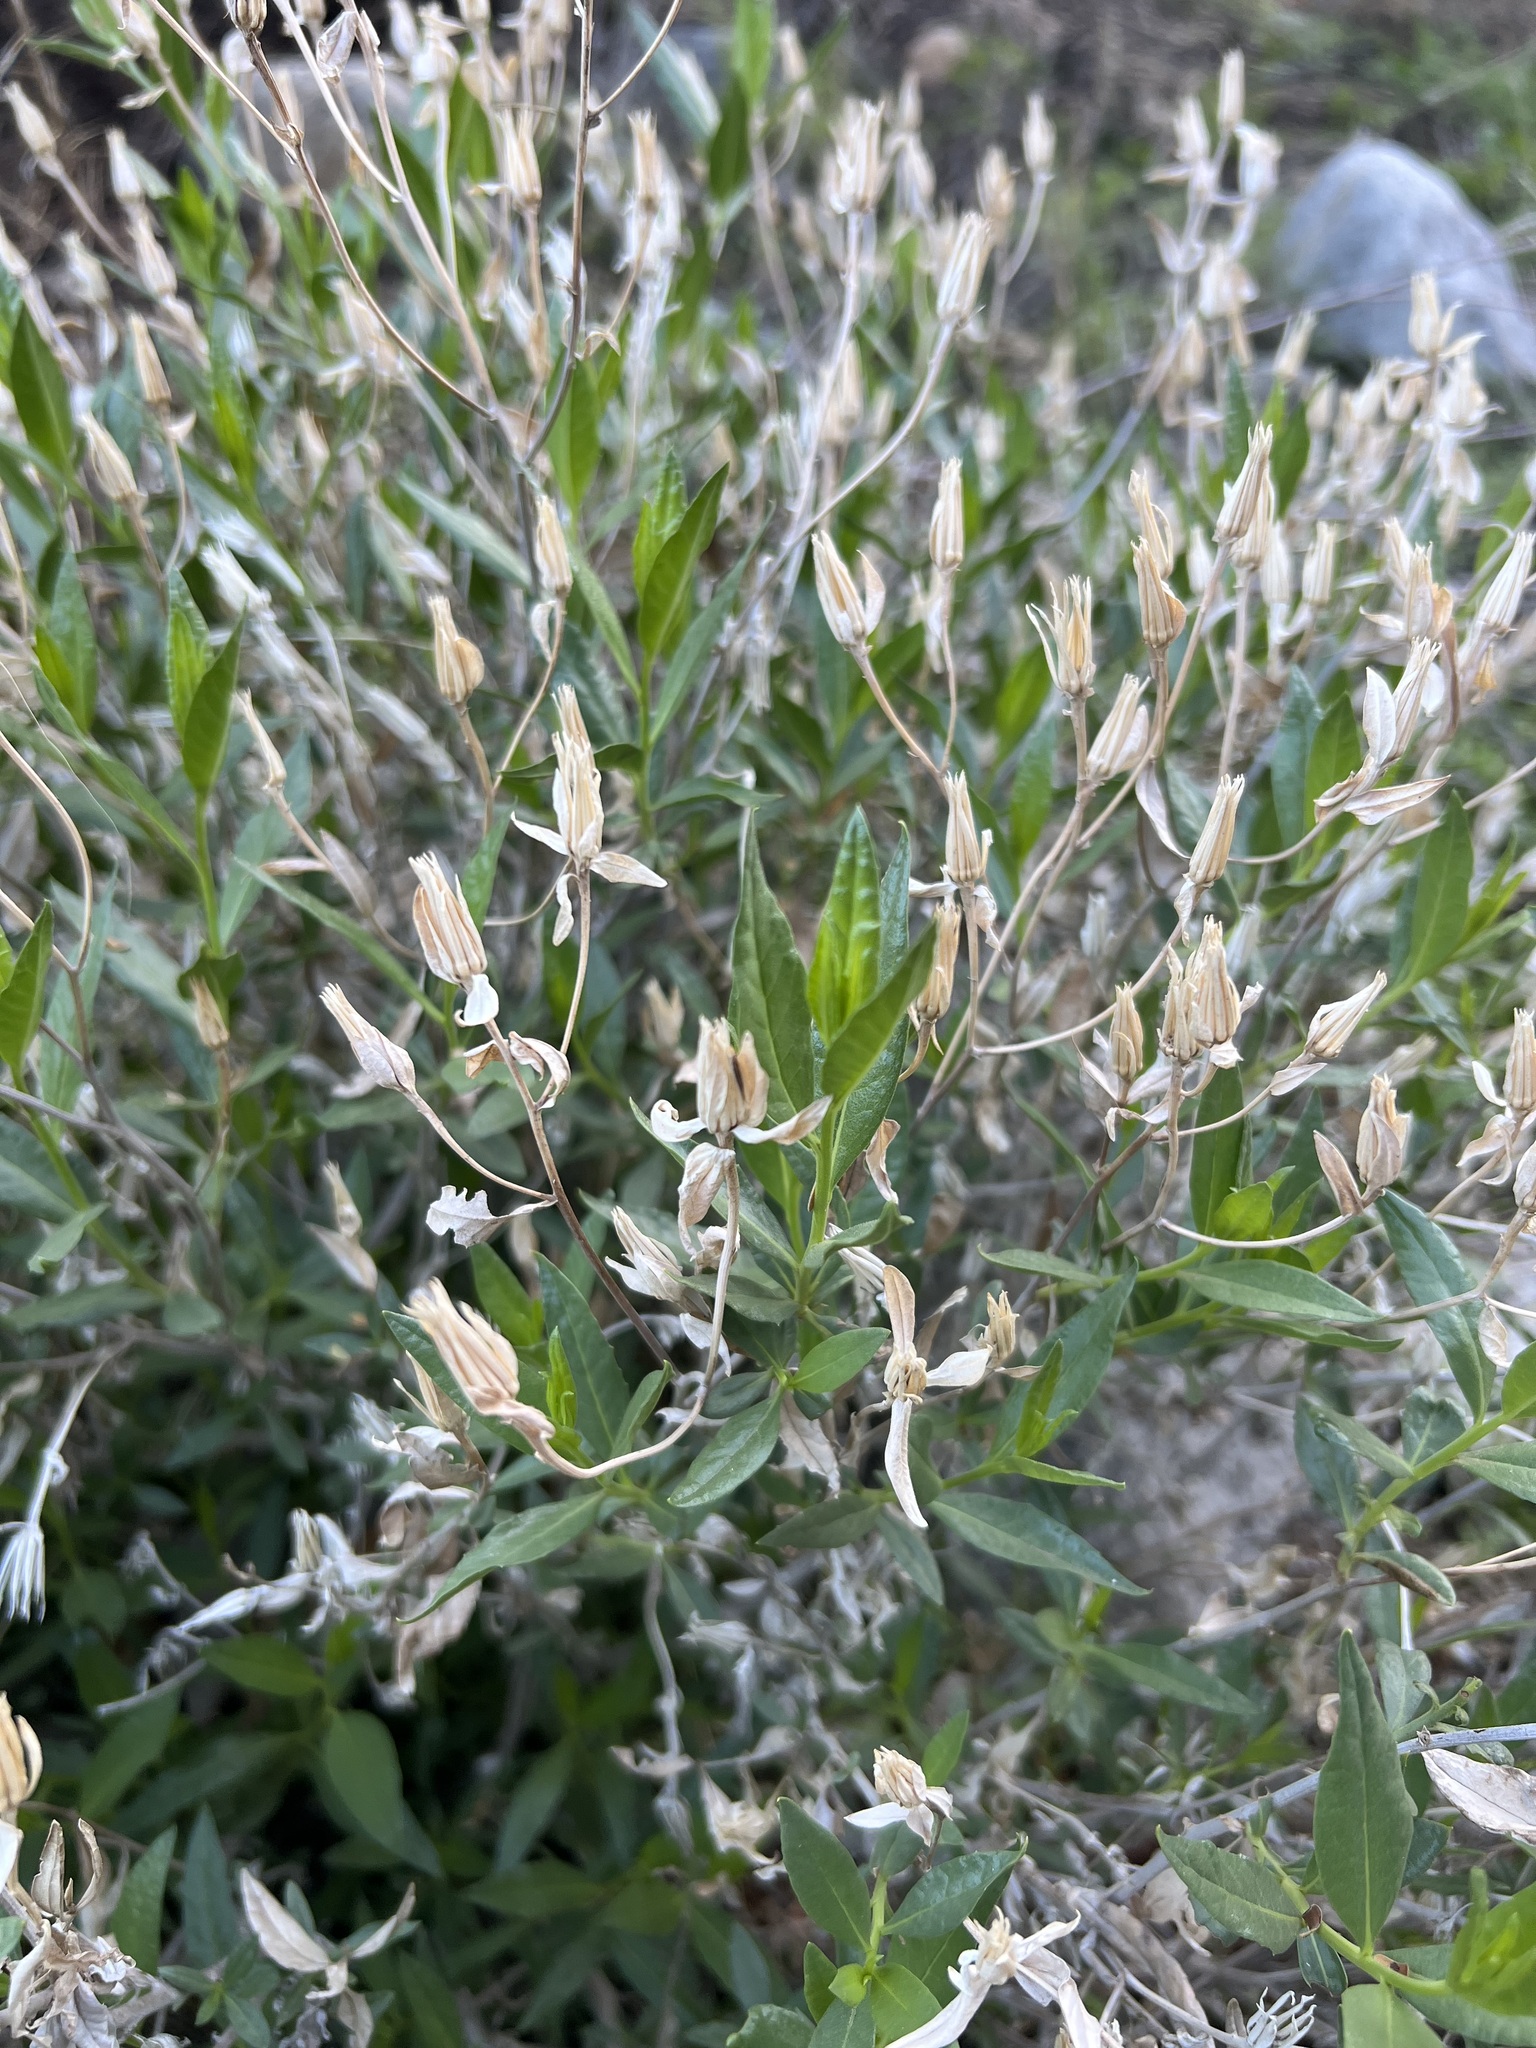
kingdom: Plantae
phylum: Tracheophyta
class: Magnoliopsida
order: Asterales
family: Asteraceae
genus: Trixis
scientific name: Trixis californica
